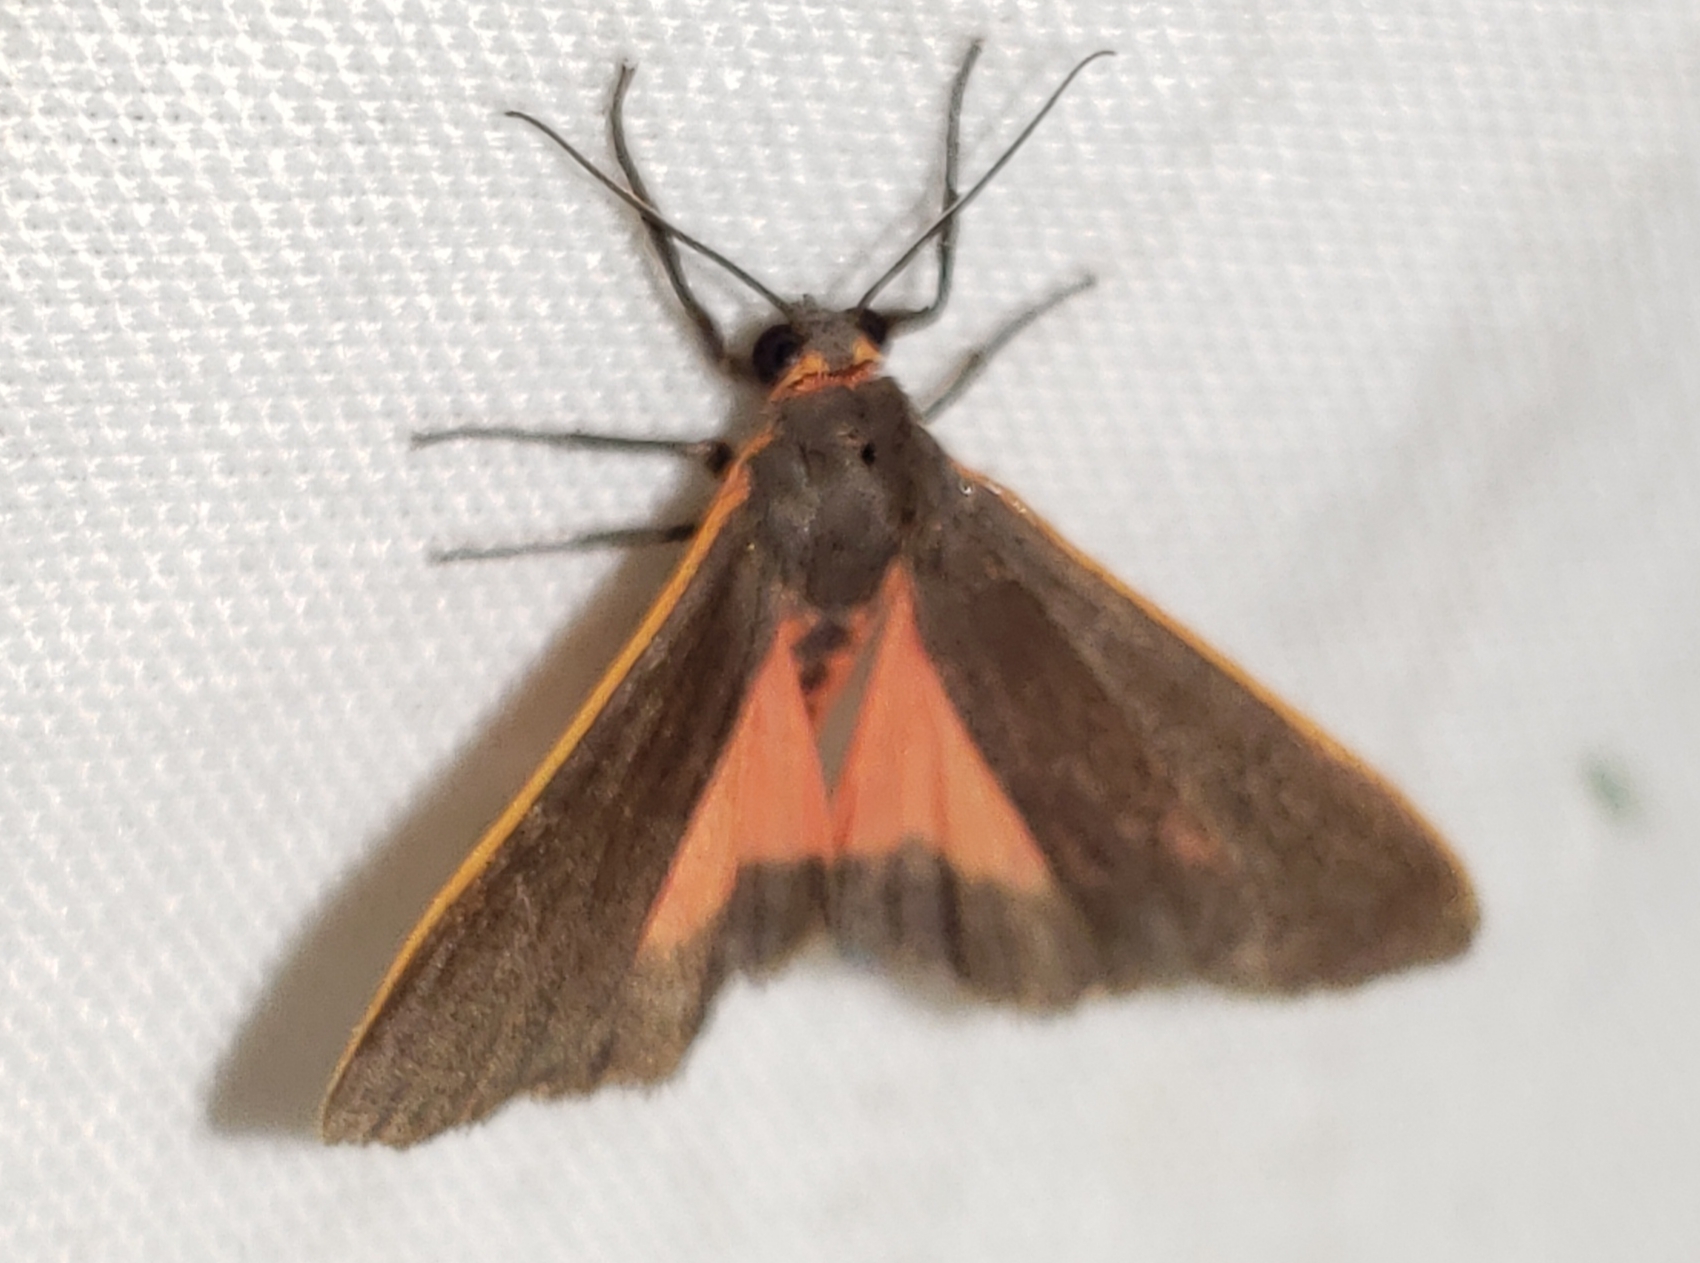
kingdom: Animalia
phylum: Arthropoda
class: Insecta
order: Lepidoptera
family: Erebidae
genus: Virbia
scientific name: Virbia laeta
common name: Joyful holomelina moth
